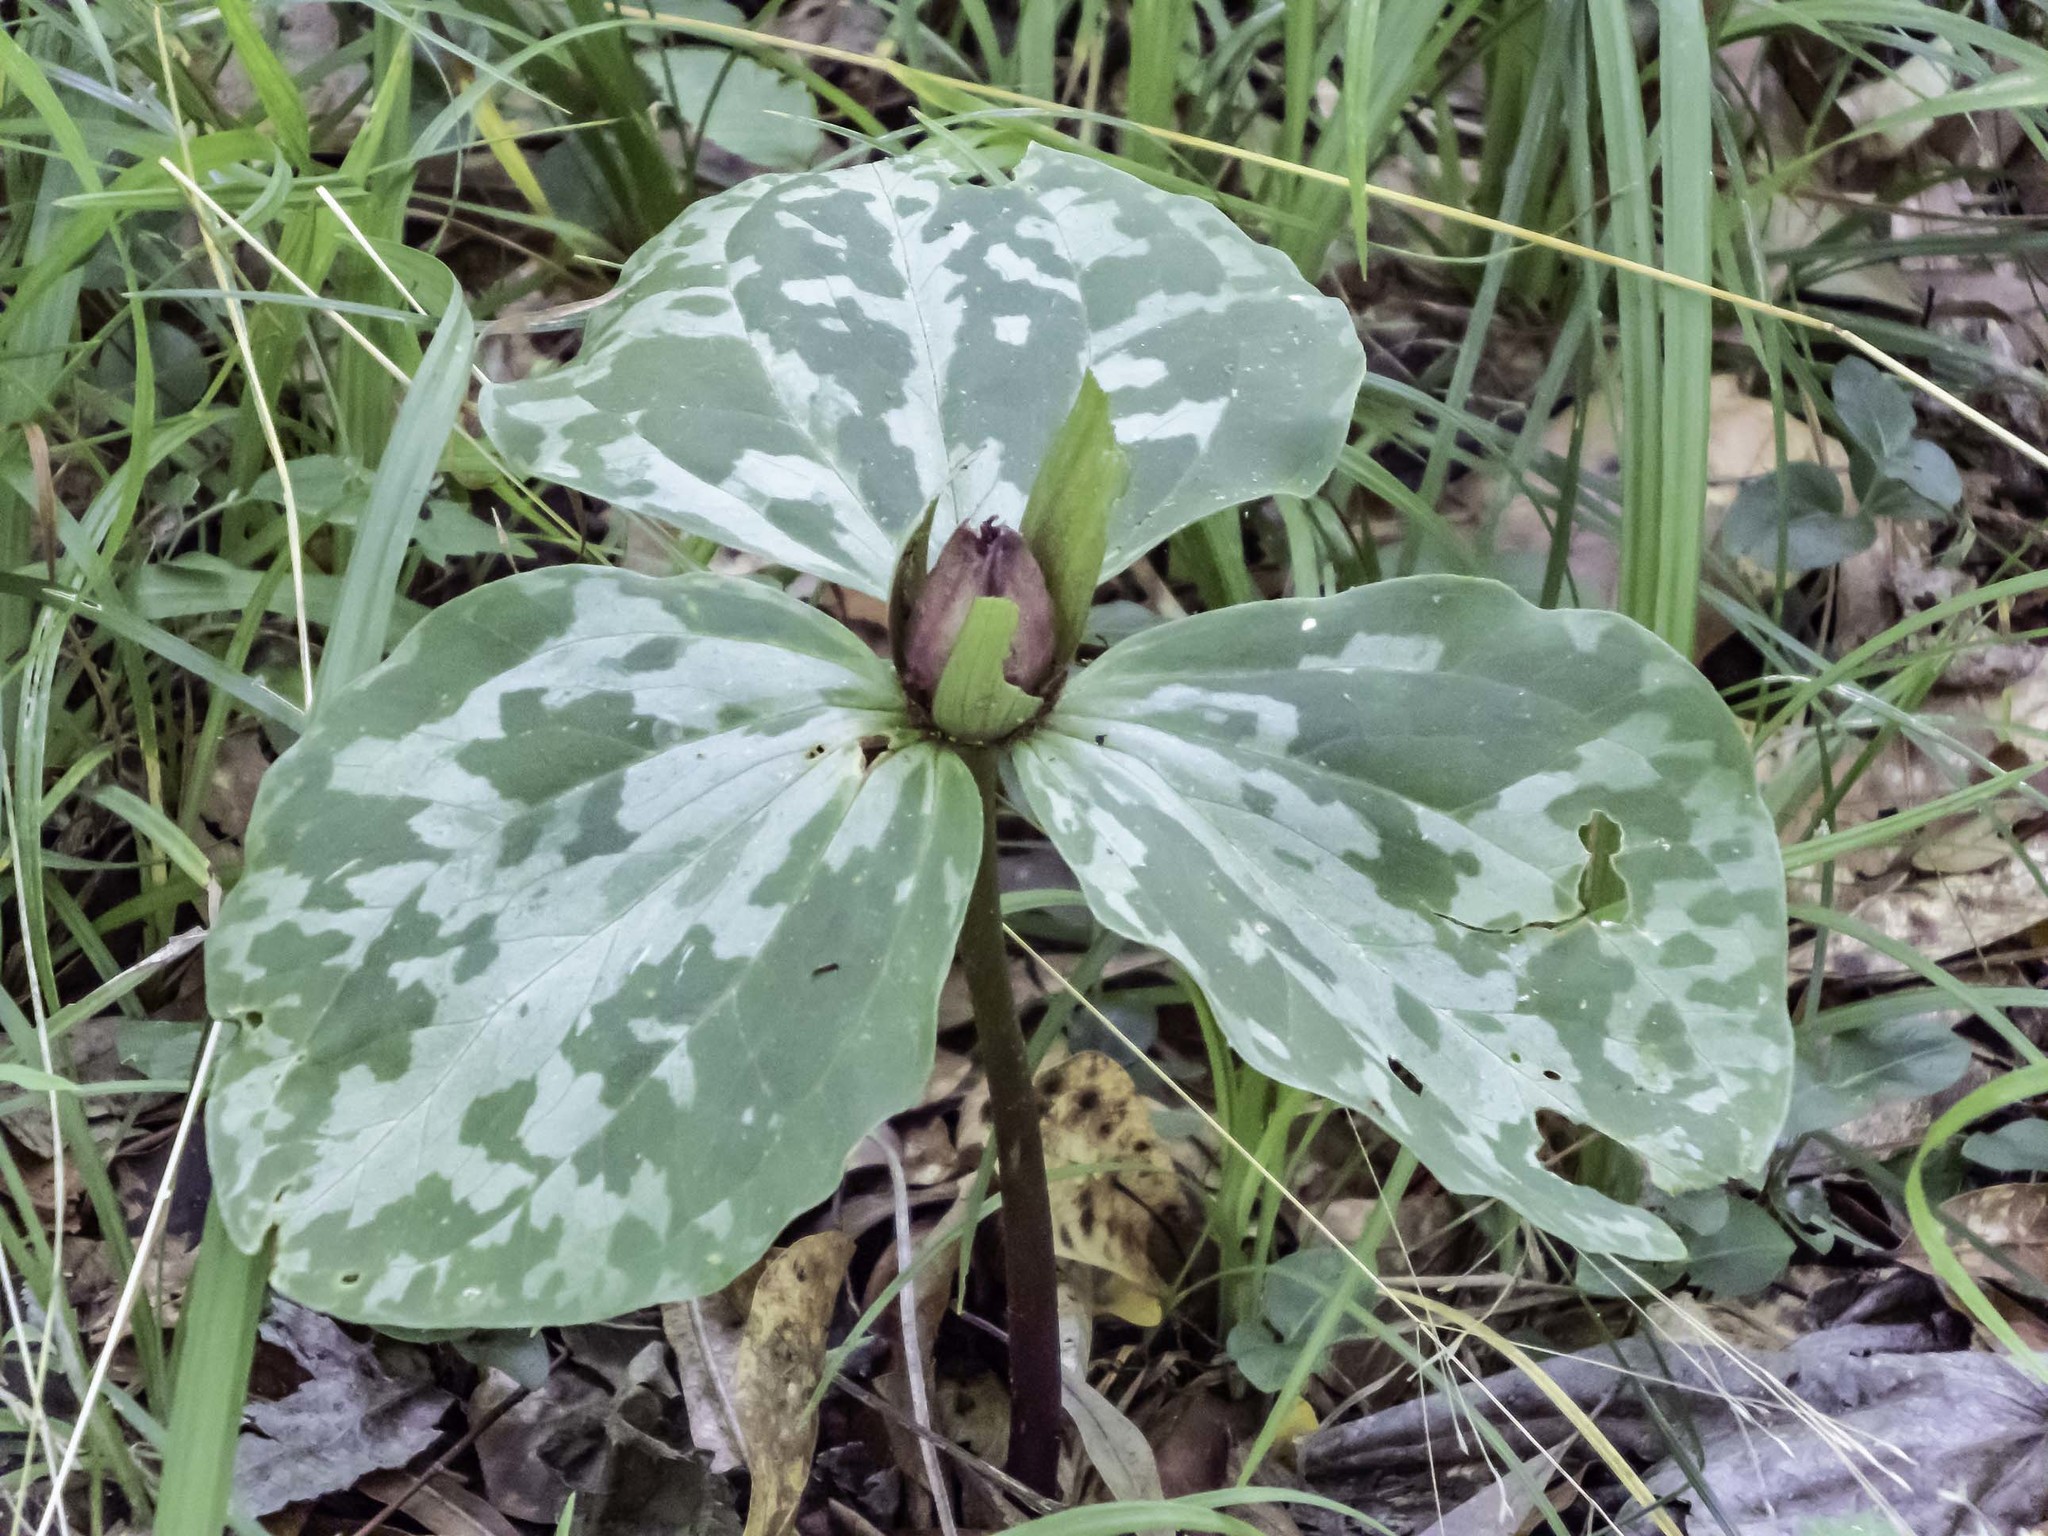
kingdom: Plantae
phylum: Tracheophyta
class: Liliopsida
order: Liliales
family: Melanthiaceae
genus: Trillium
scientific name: Trillium cuneatum
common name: Cuneate trillium
